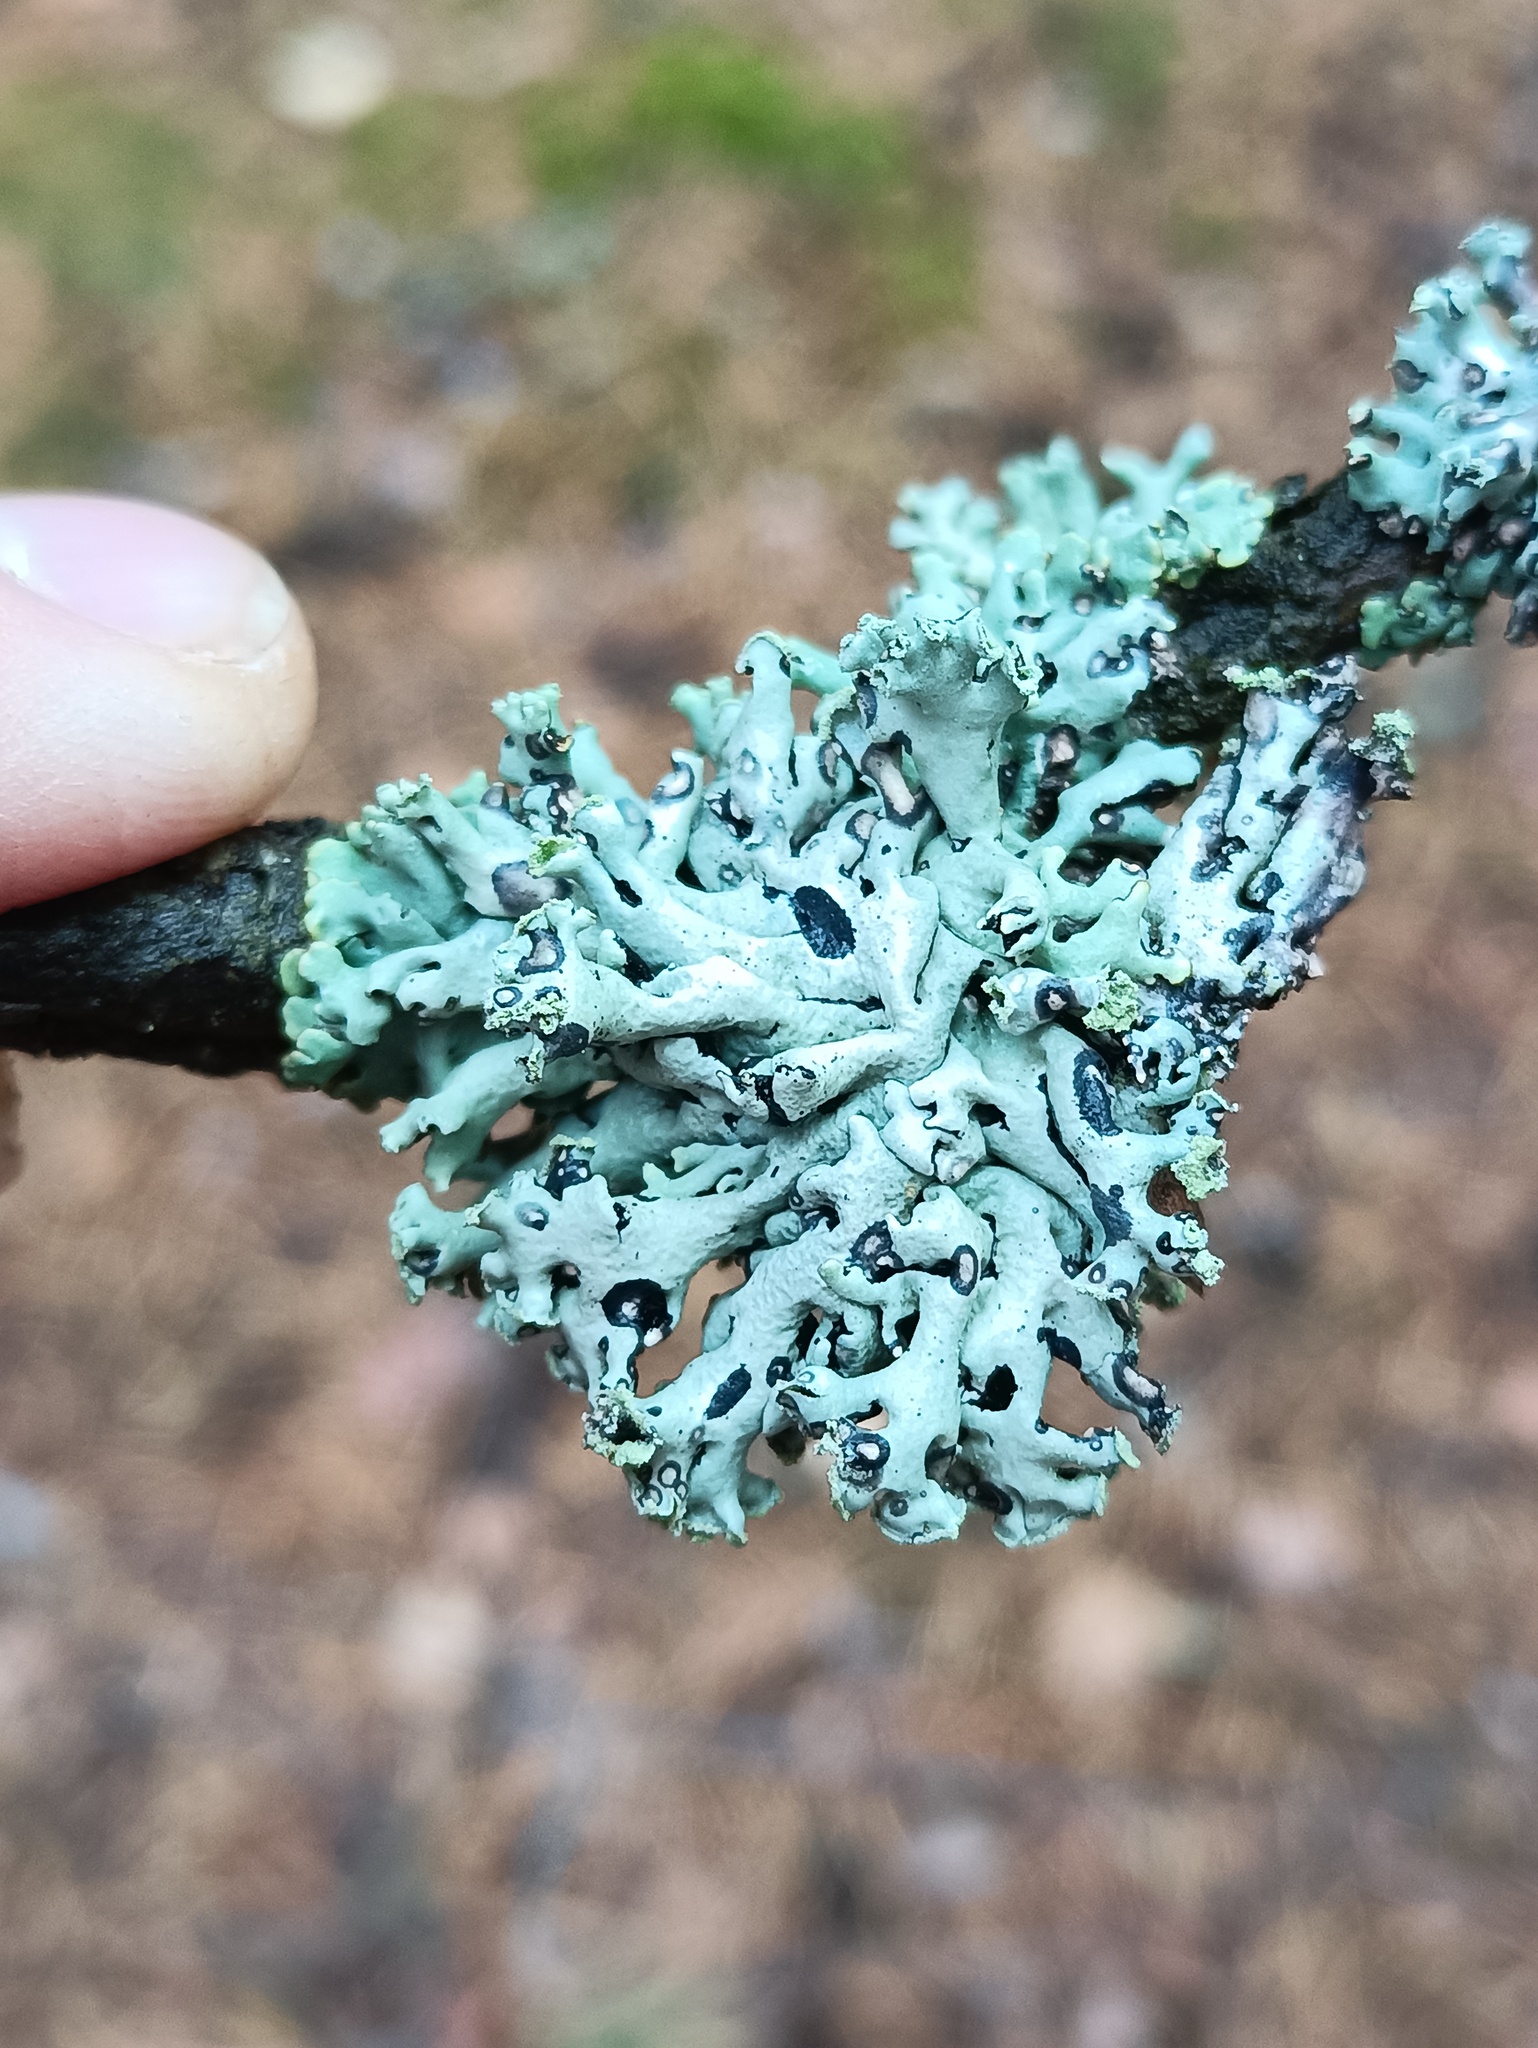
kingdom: Fungi
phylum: Ascomycota
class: Lecanoromycetes
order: Lecanorales
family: Parmeliaceae
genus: Hypogymnia
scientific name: Hypogymnia physodes
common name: Dark crottle
